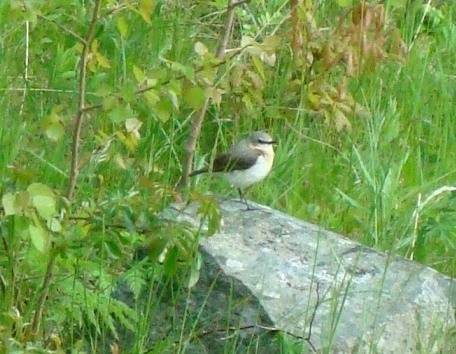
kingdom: Animalia
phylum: Chordata
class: Aves
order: Passeriformes
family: Muscicapidae
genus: Oenanthe
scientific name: Oenanthe oenanthe
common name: Northern wheatear
